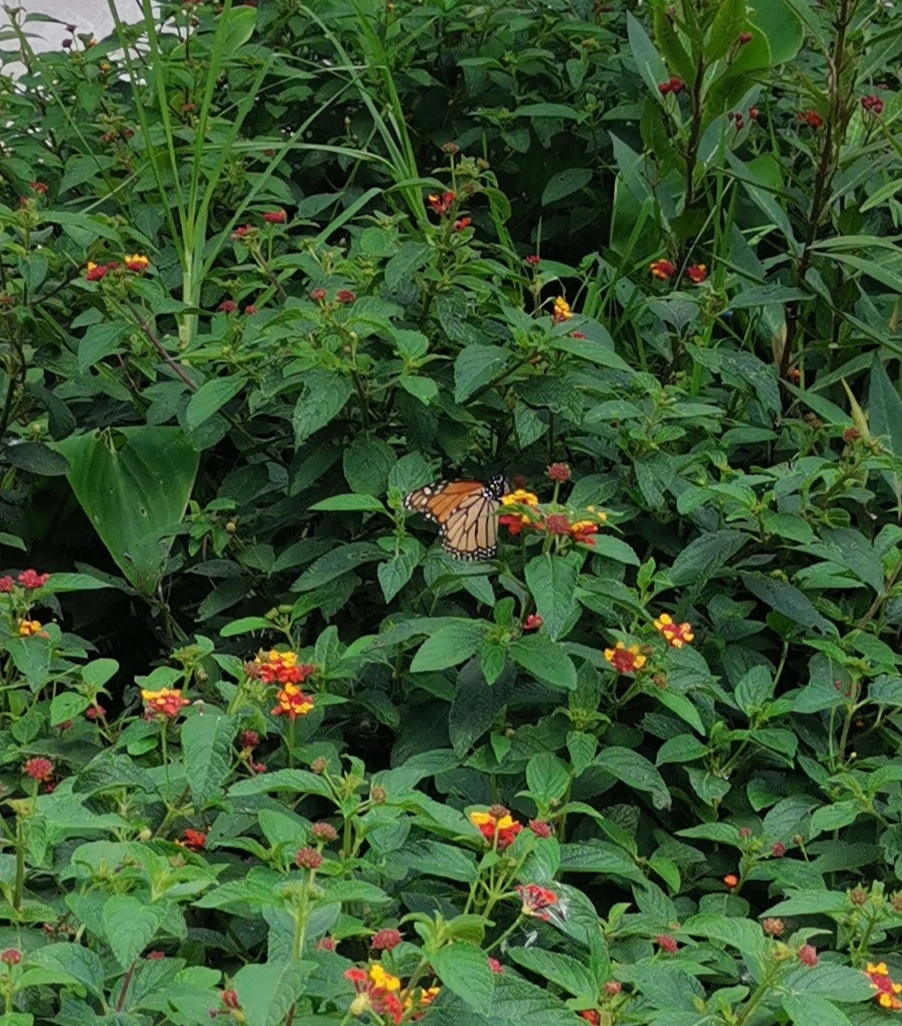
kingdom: Animalia
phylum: Arthropoda
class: Insecta
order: Lepidoptera
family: Nymphalidae
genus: Danaus
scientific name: Danaus plexippus
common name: Monarch
